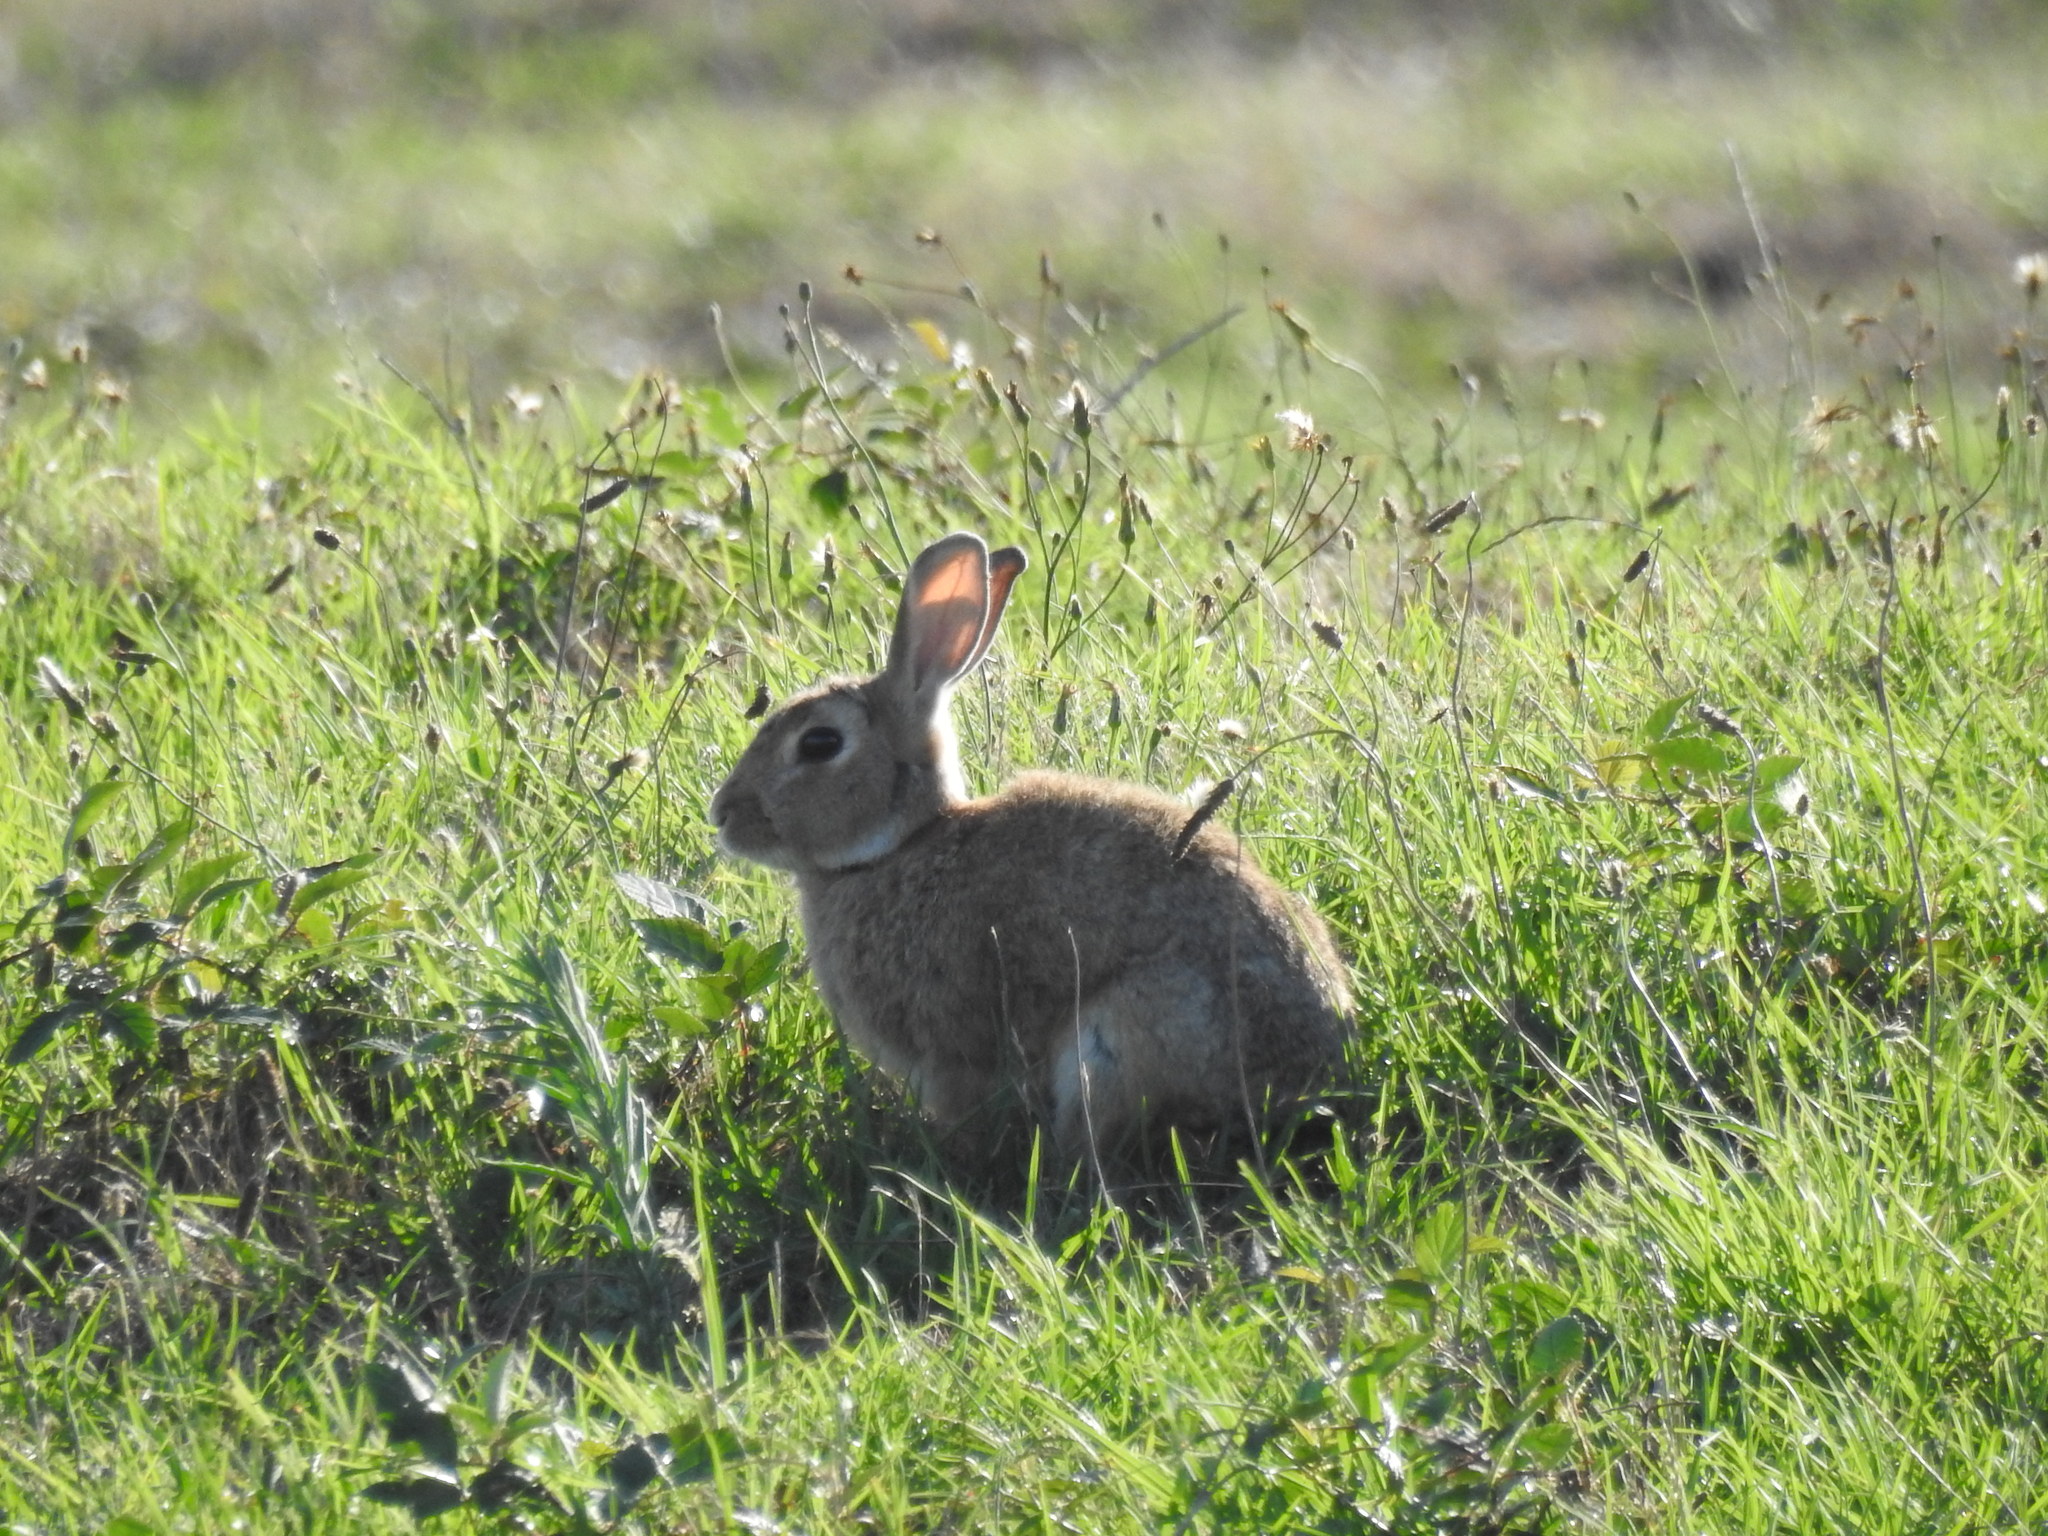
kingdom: Animalia
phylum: Chordata
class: Mammalia
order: Lagomorpha
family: Leporidae
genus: Oryctolagus
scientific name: Oryctolagus cuniculus
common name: European rabbit
